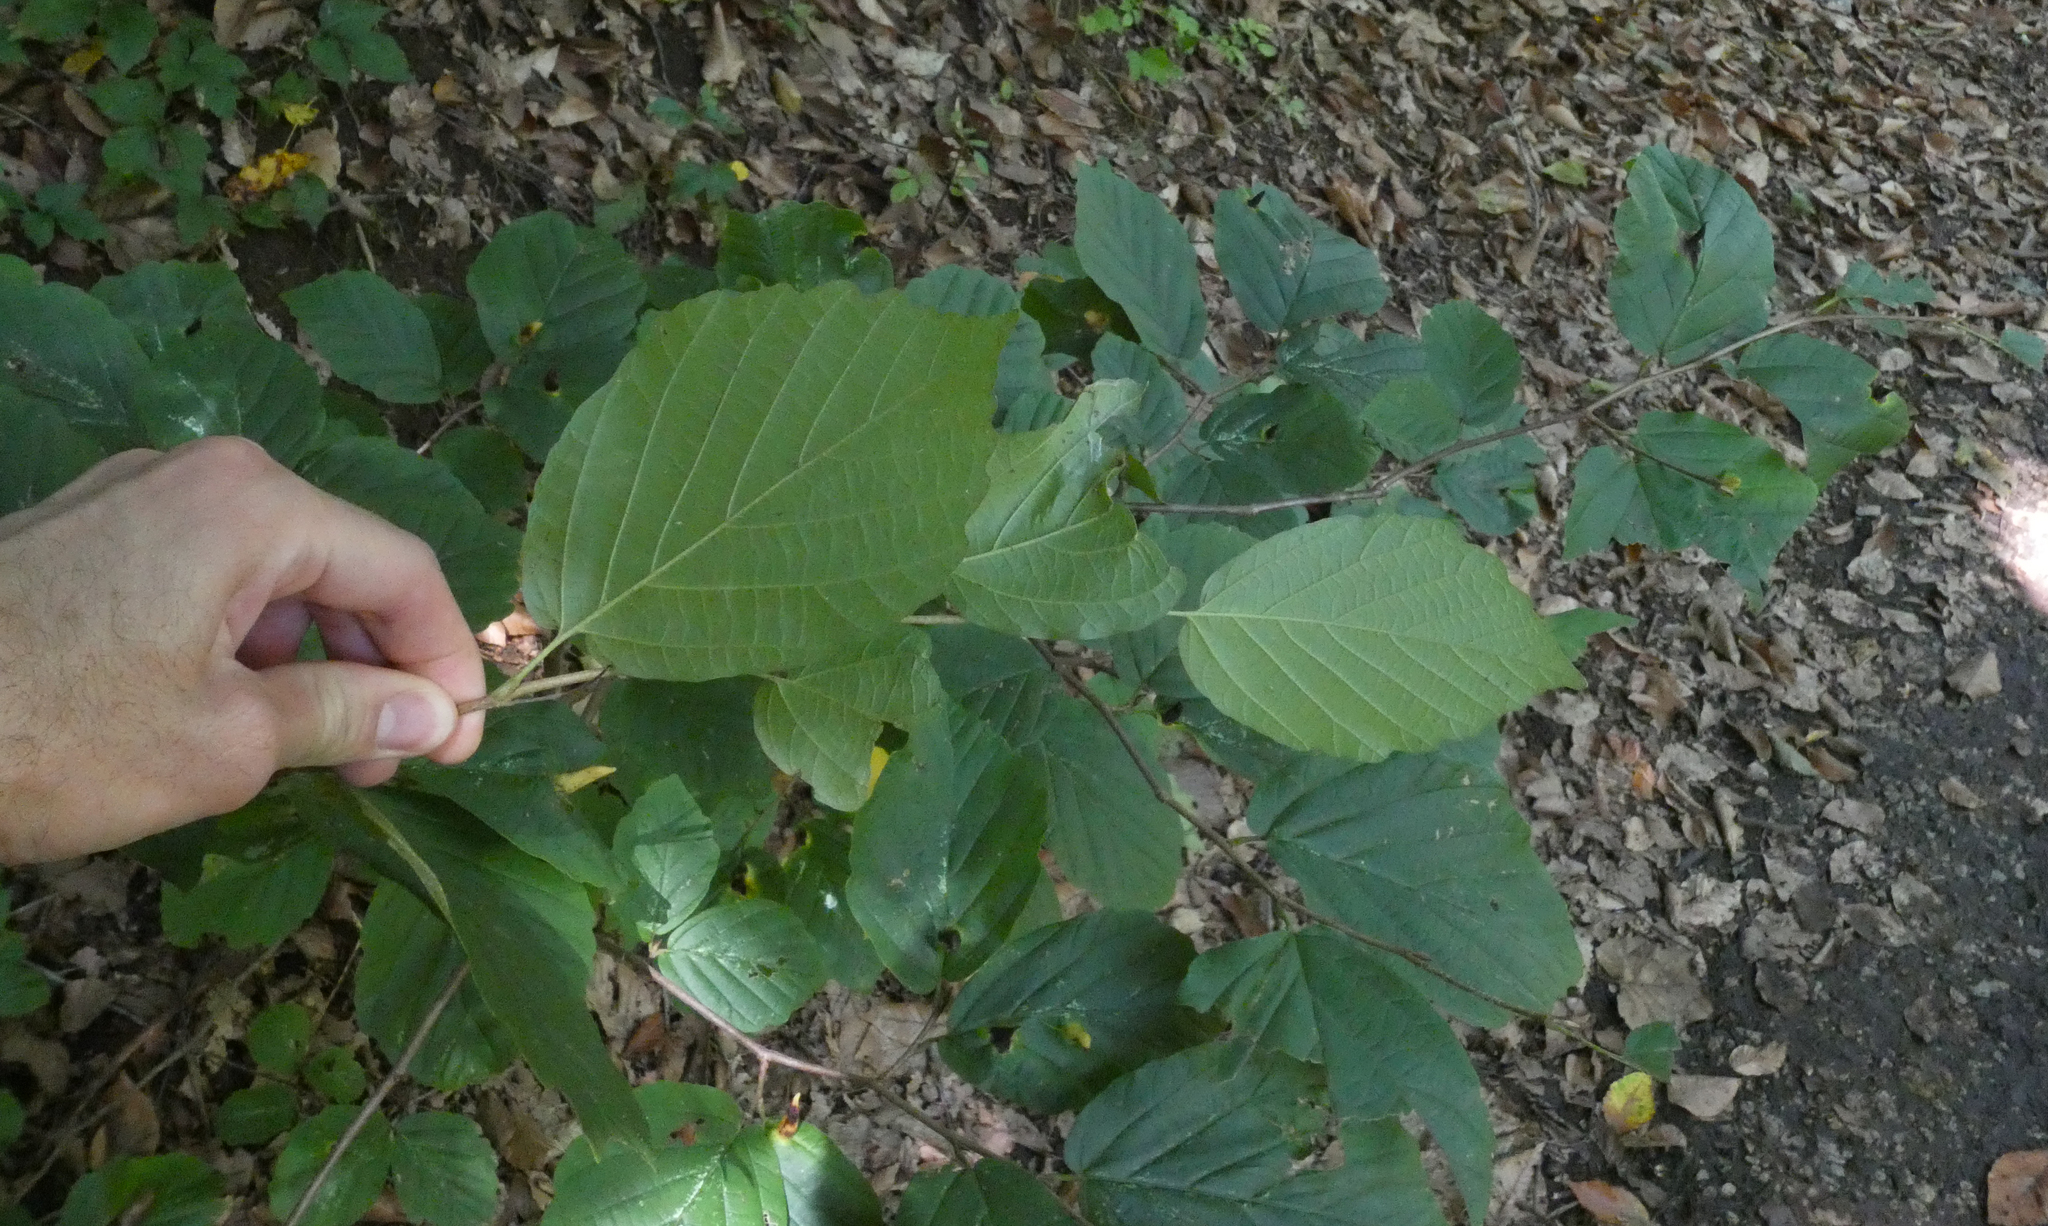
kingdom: Plantae
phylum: Tracheophyta
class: Magnoliopsida
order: Saxifragales
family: Hamamelidaceae
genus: Hamamelis
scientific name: Hamamelis virginiana
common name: Witch-hazel
